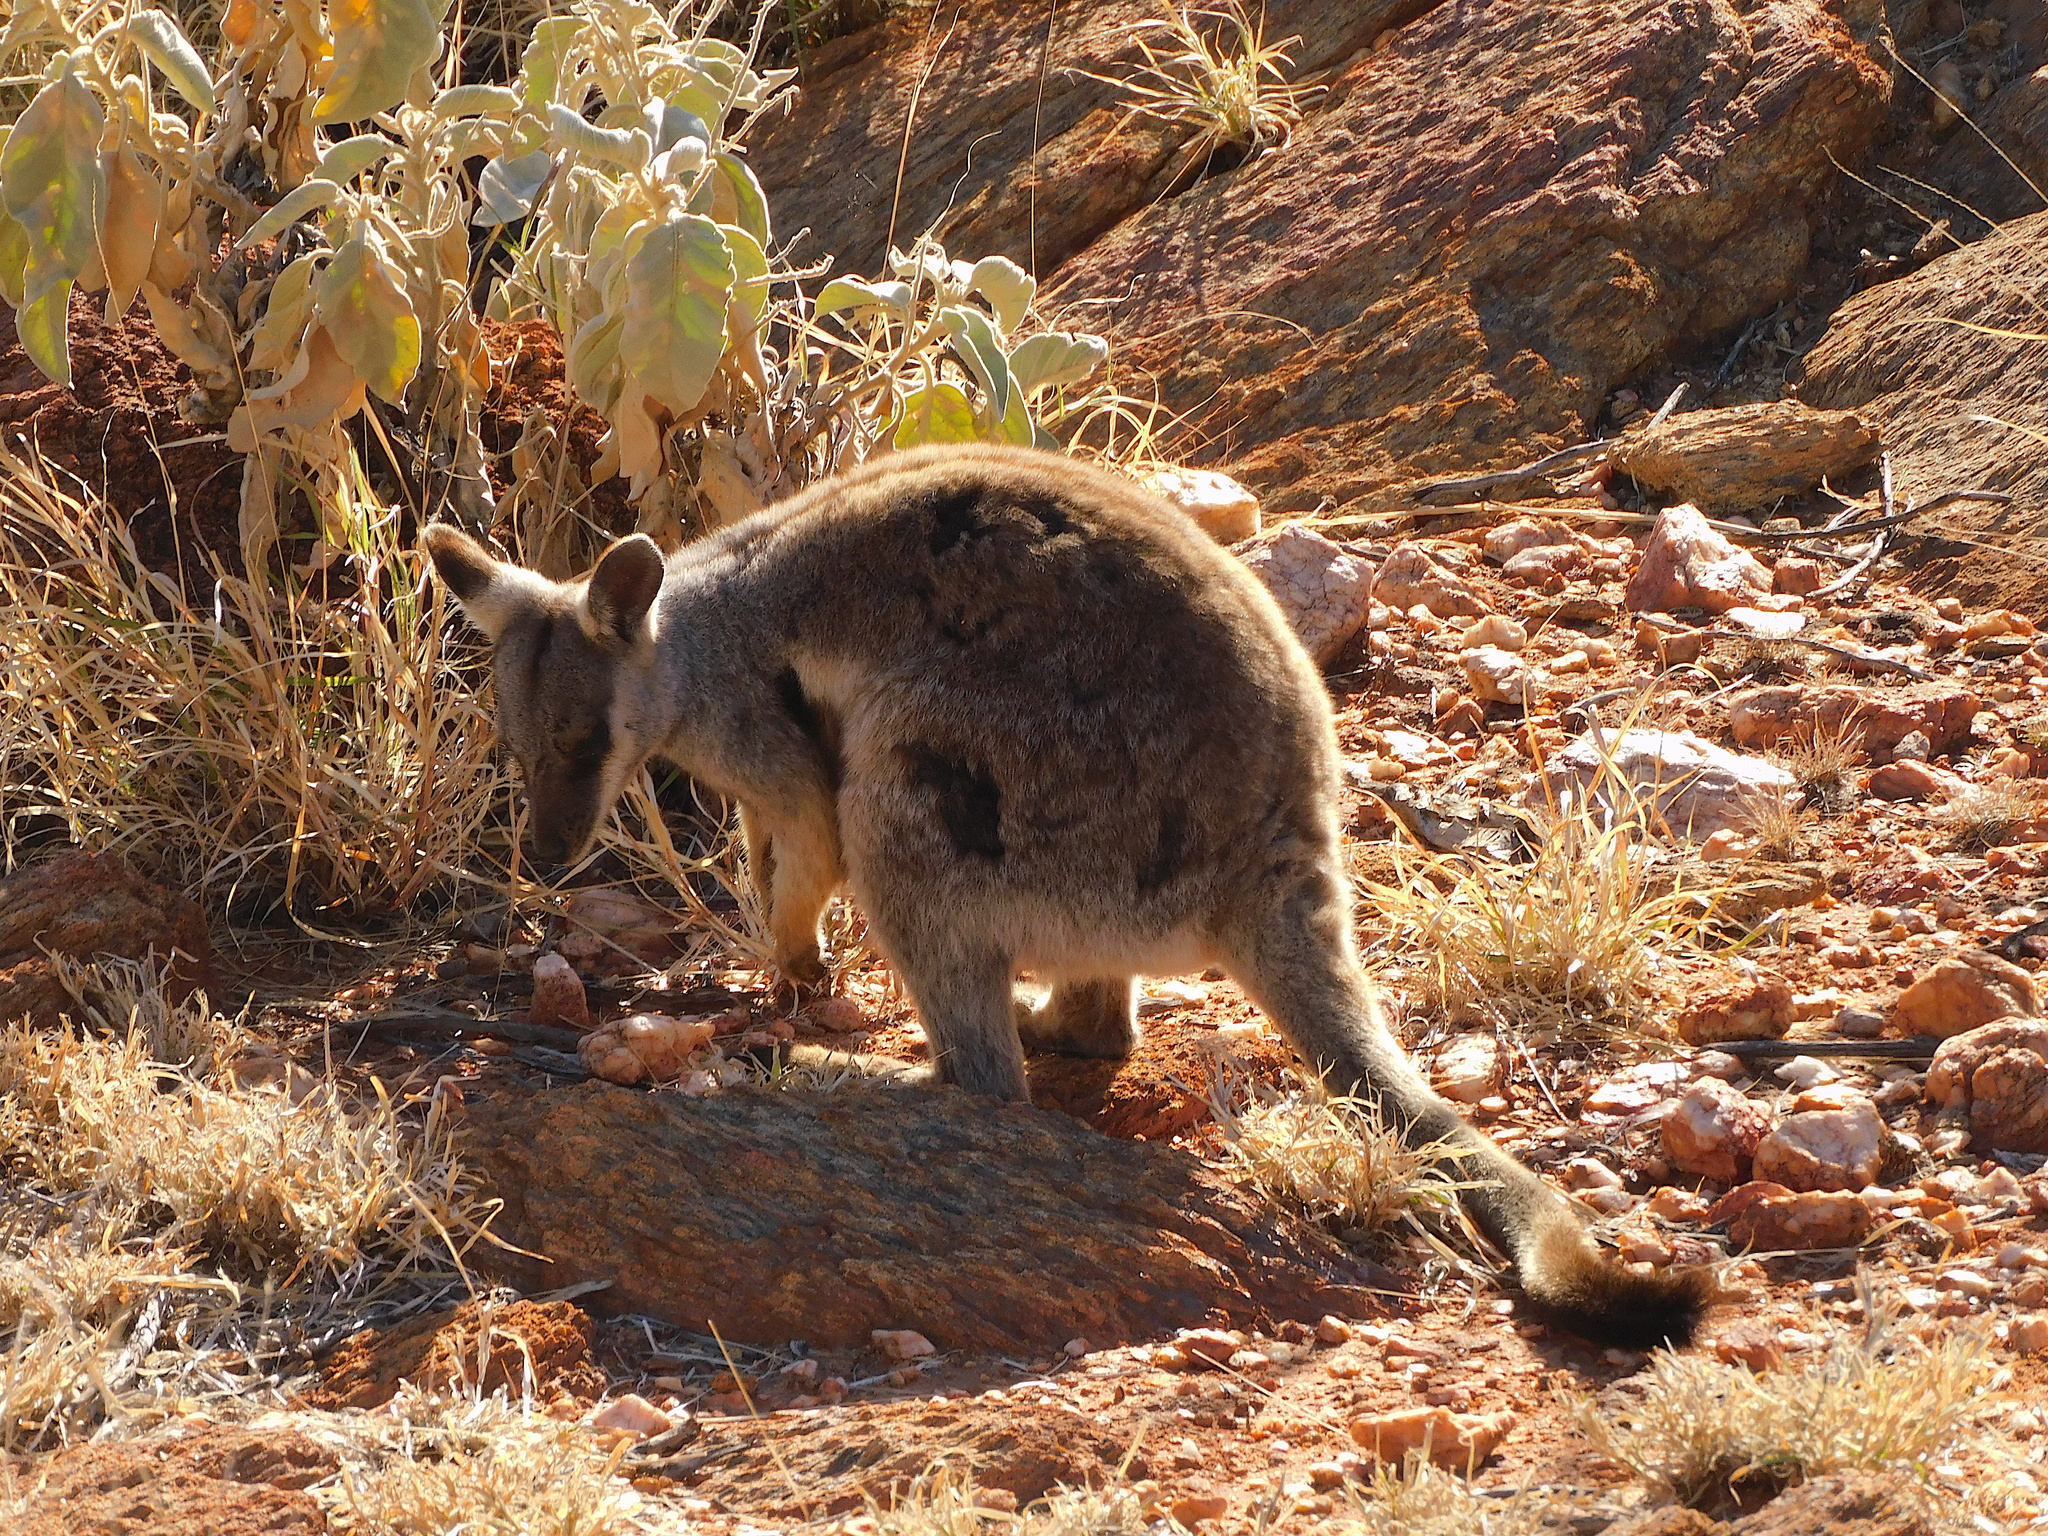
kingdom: Animalia
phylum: Chordata
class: Mammalia
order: Diprotodontia
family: Macropodidae
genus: Petrogale
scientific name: Petrogale lateralis
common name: Black-flanked rock-wallaby
